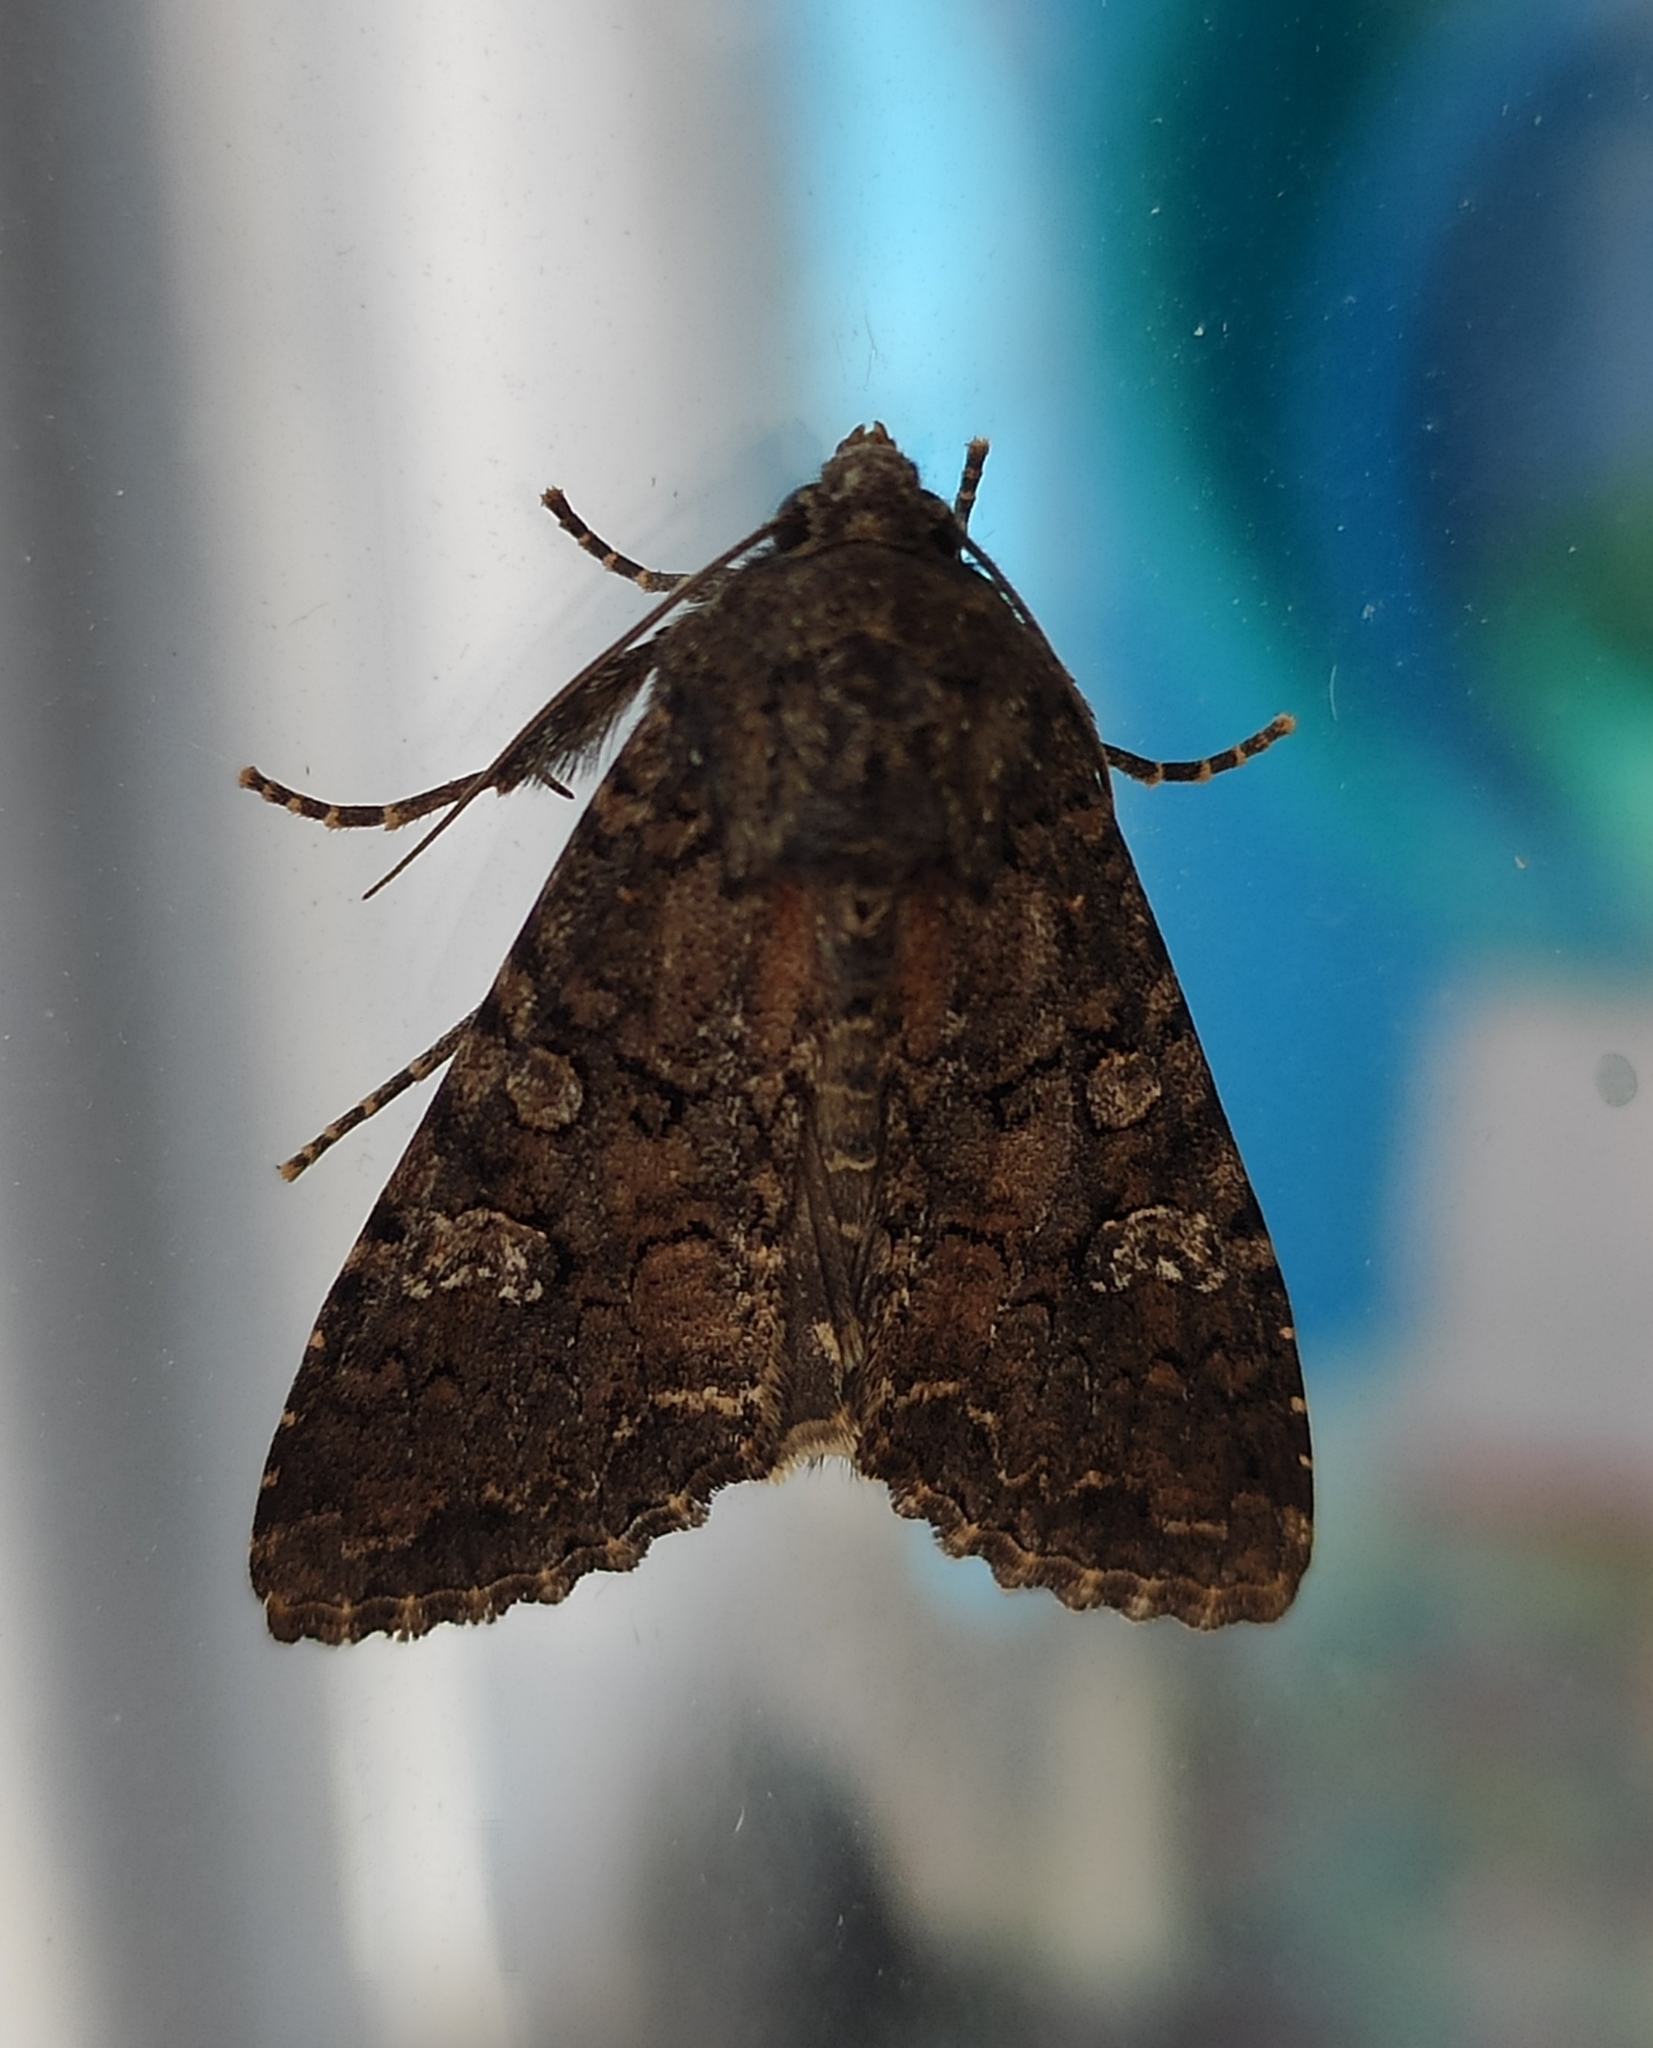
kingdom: Animalia
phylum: Arthropoda
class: Insecta
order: Lepidoptera
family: Noctuidae
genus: Mamestra
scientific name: Mamestra brassicae
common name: Cabbage moth
